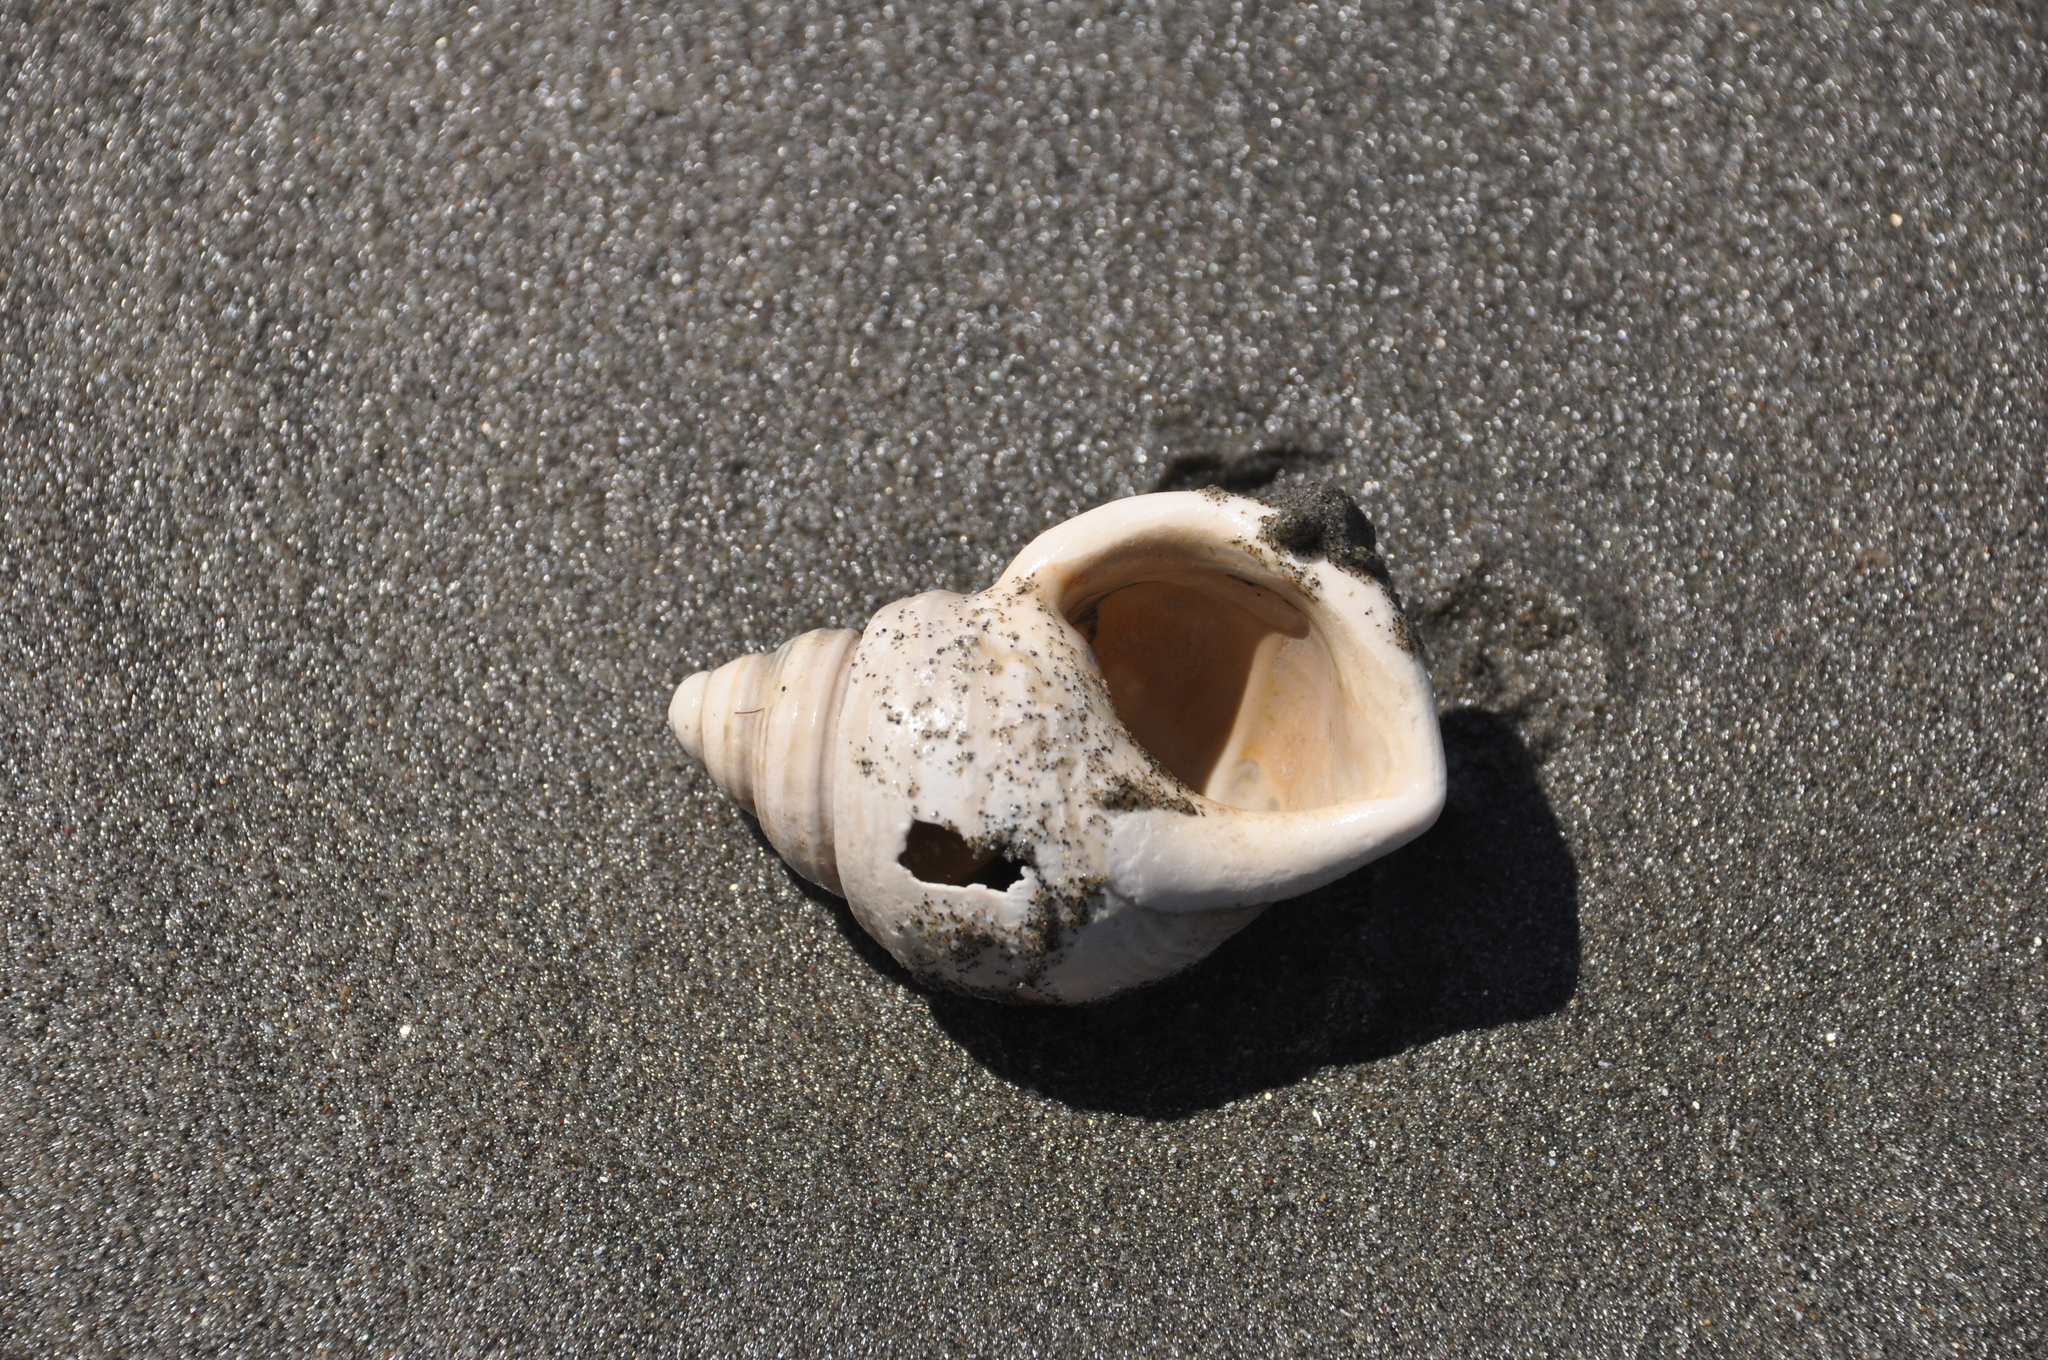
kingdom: Animalia
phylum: Mollusca
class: Gastropoda
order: Littorinimorpha
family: Struthiolariidae
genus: Pelicaria
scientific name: Pelicaria vermis
